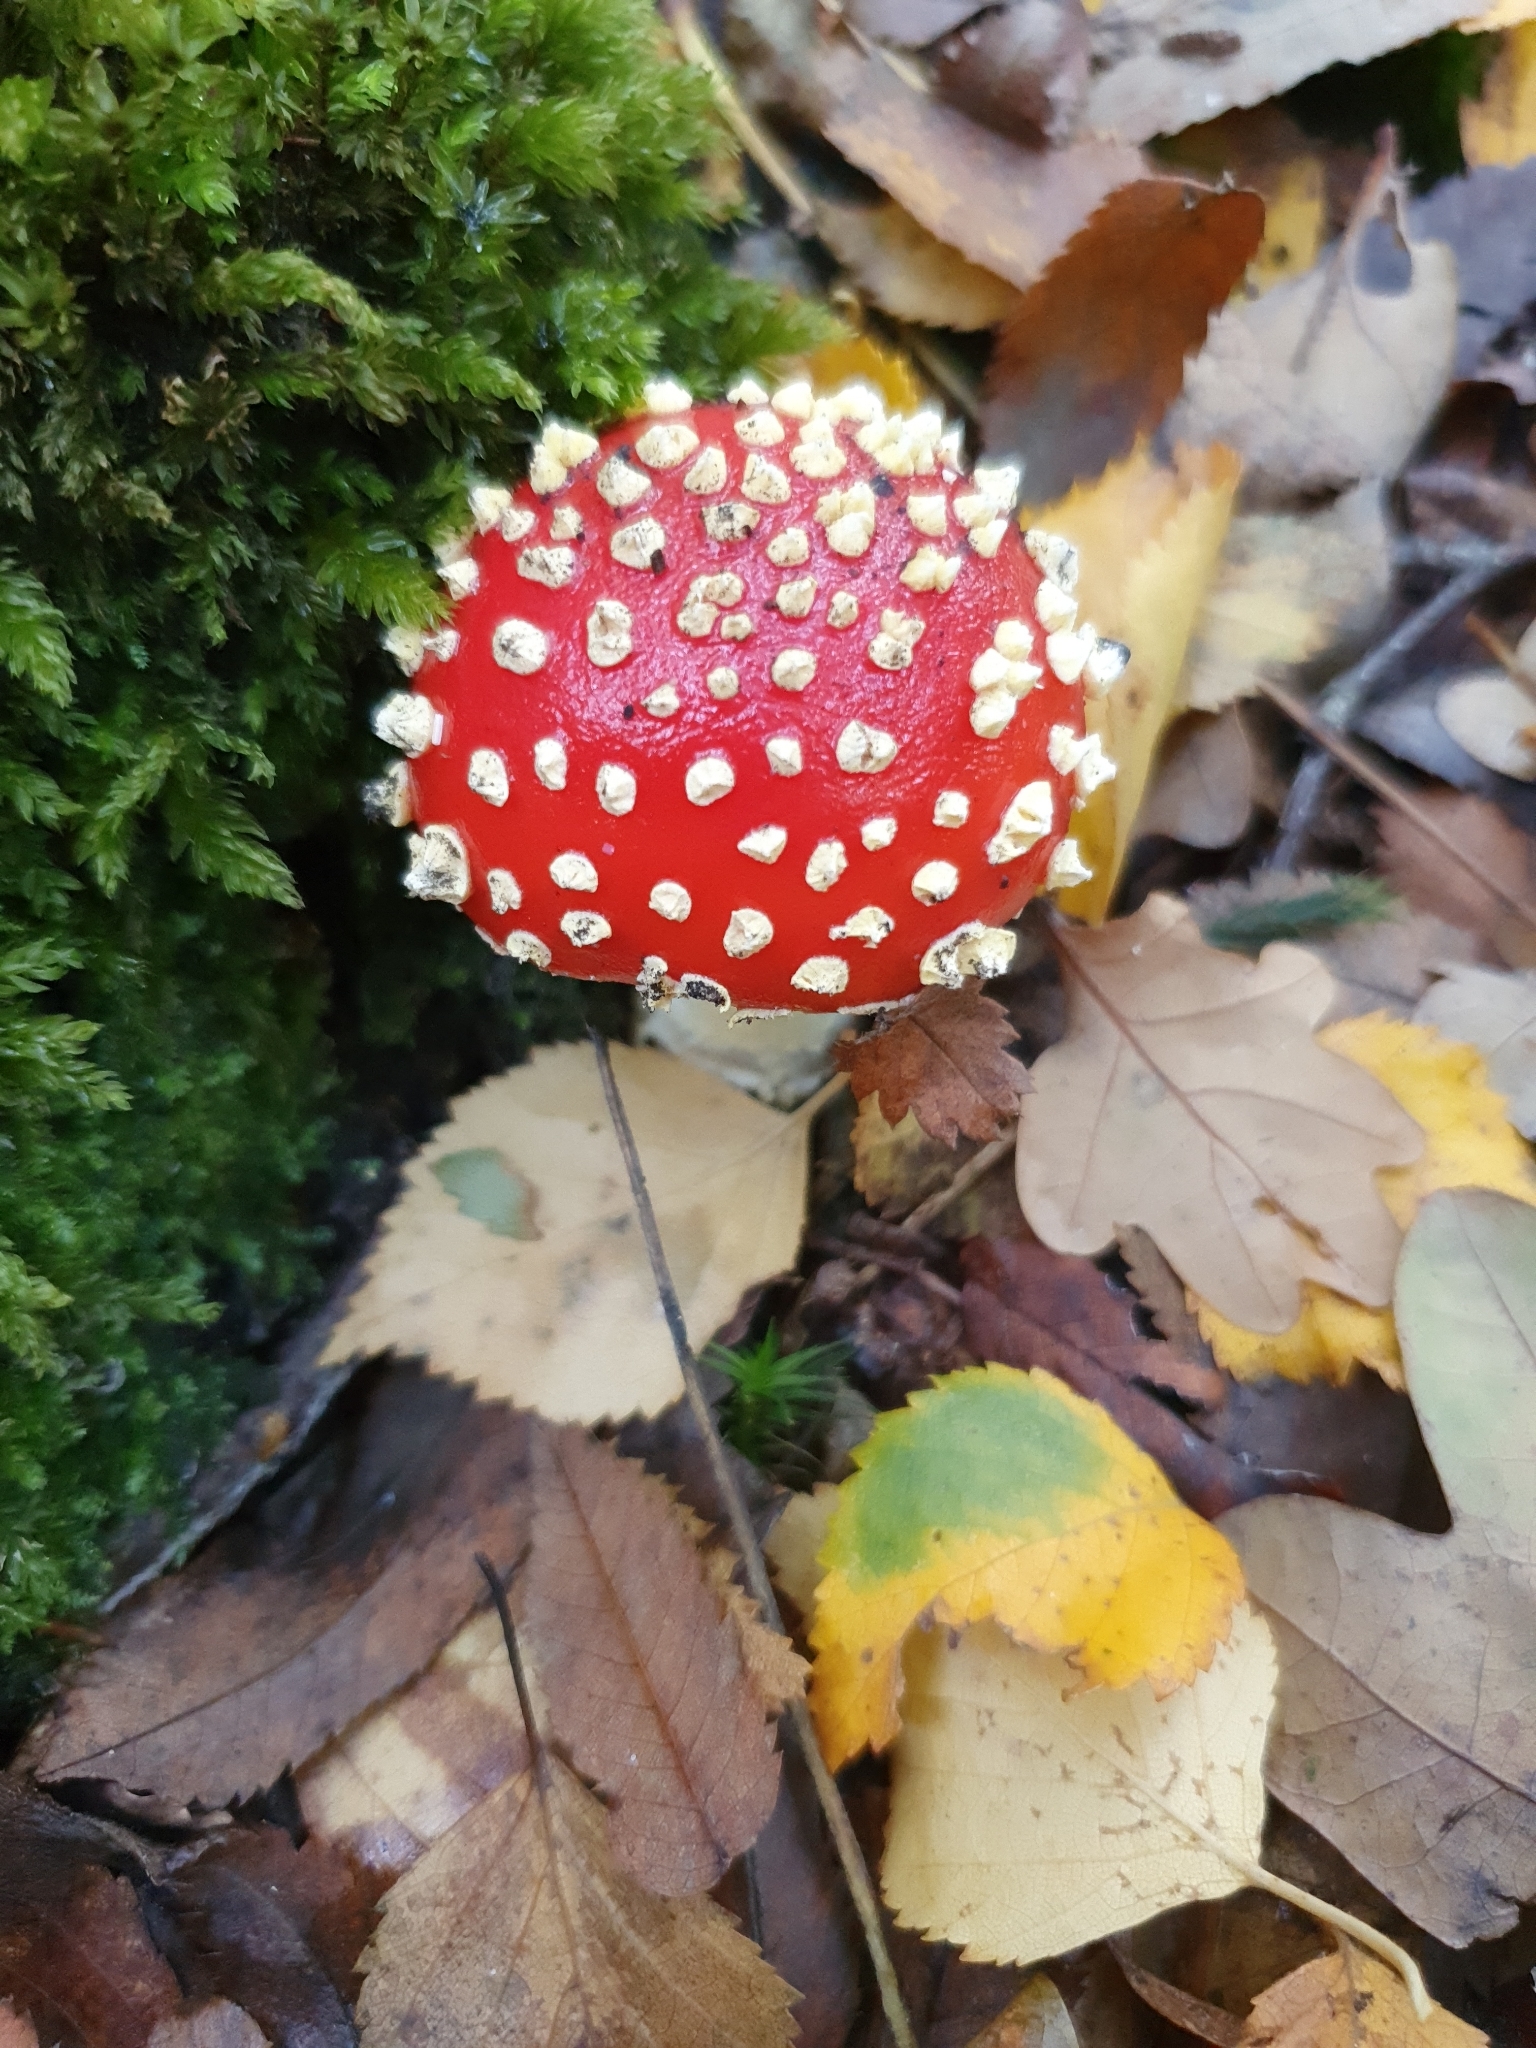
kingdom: Fungi
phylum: Basidiomycota
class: Agaricomycetes
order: Agaricales
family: Amanitaceae
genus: Amanita
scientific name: Amanita muscaria
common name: Fly agaric
